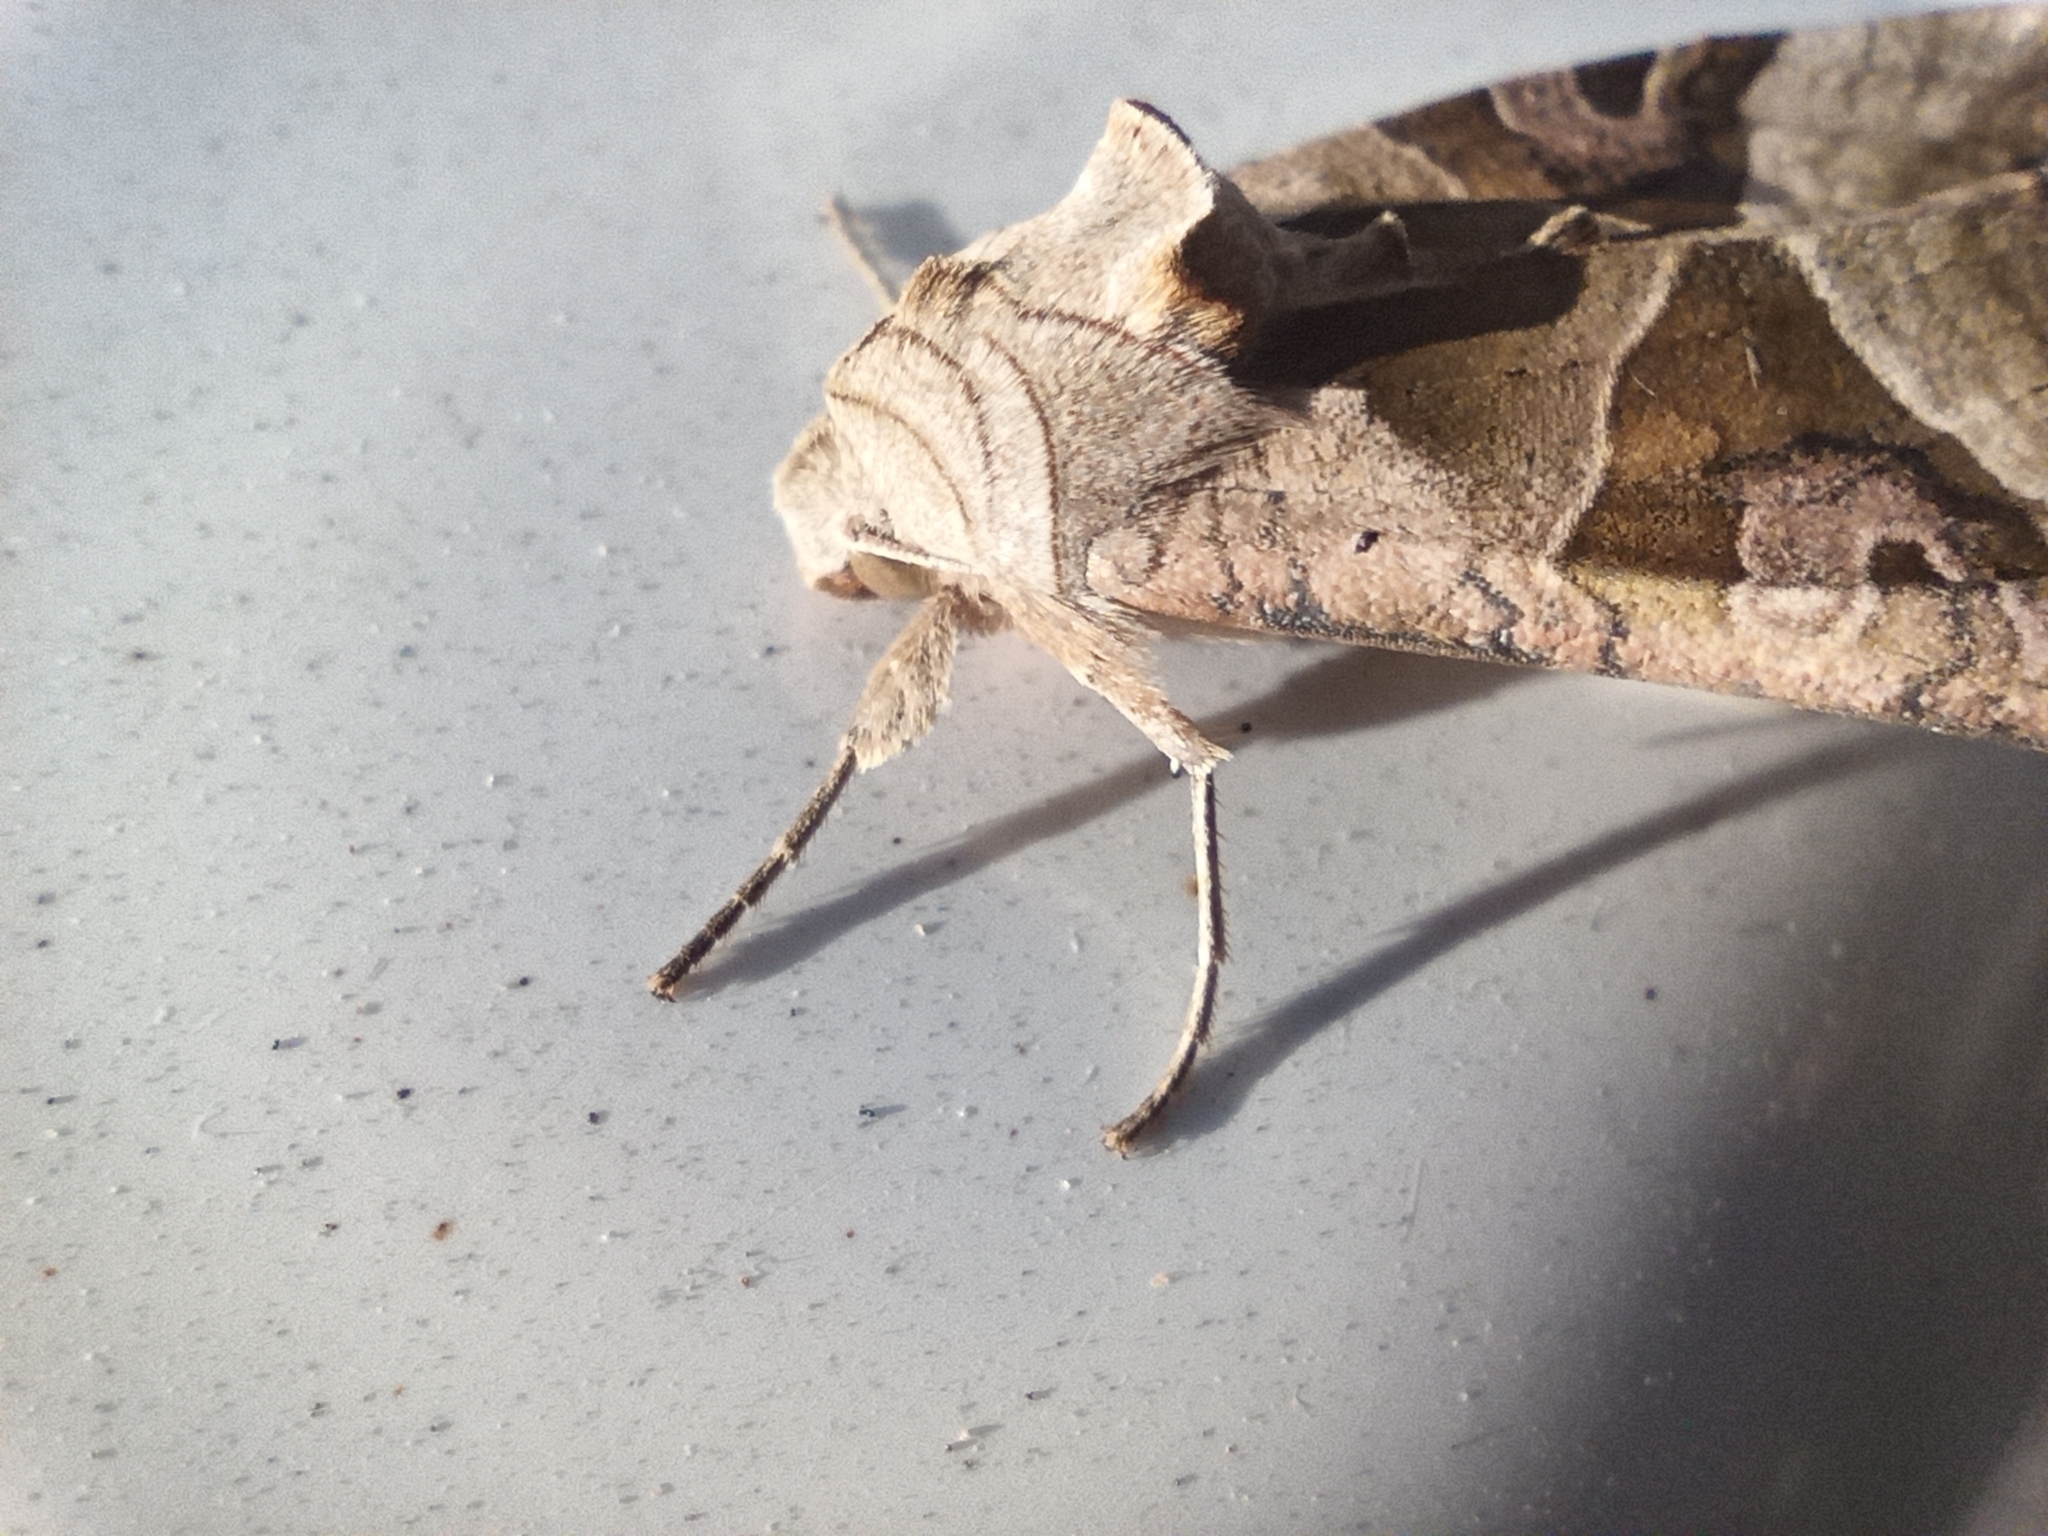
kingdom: Animalia
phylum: Arthropoda
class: Insecta
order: Lepidoptera
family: Noctuidae
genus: Phlogophora
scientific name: Phlogophora meticulosa
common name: Angle shades
